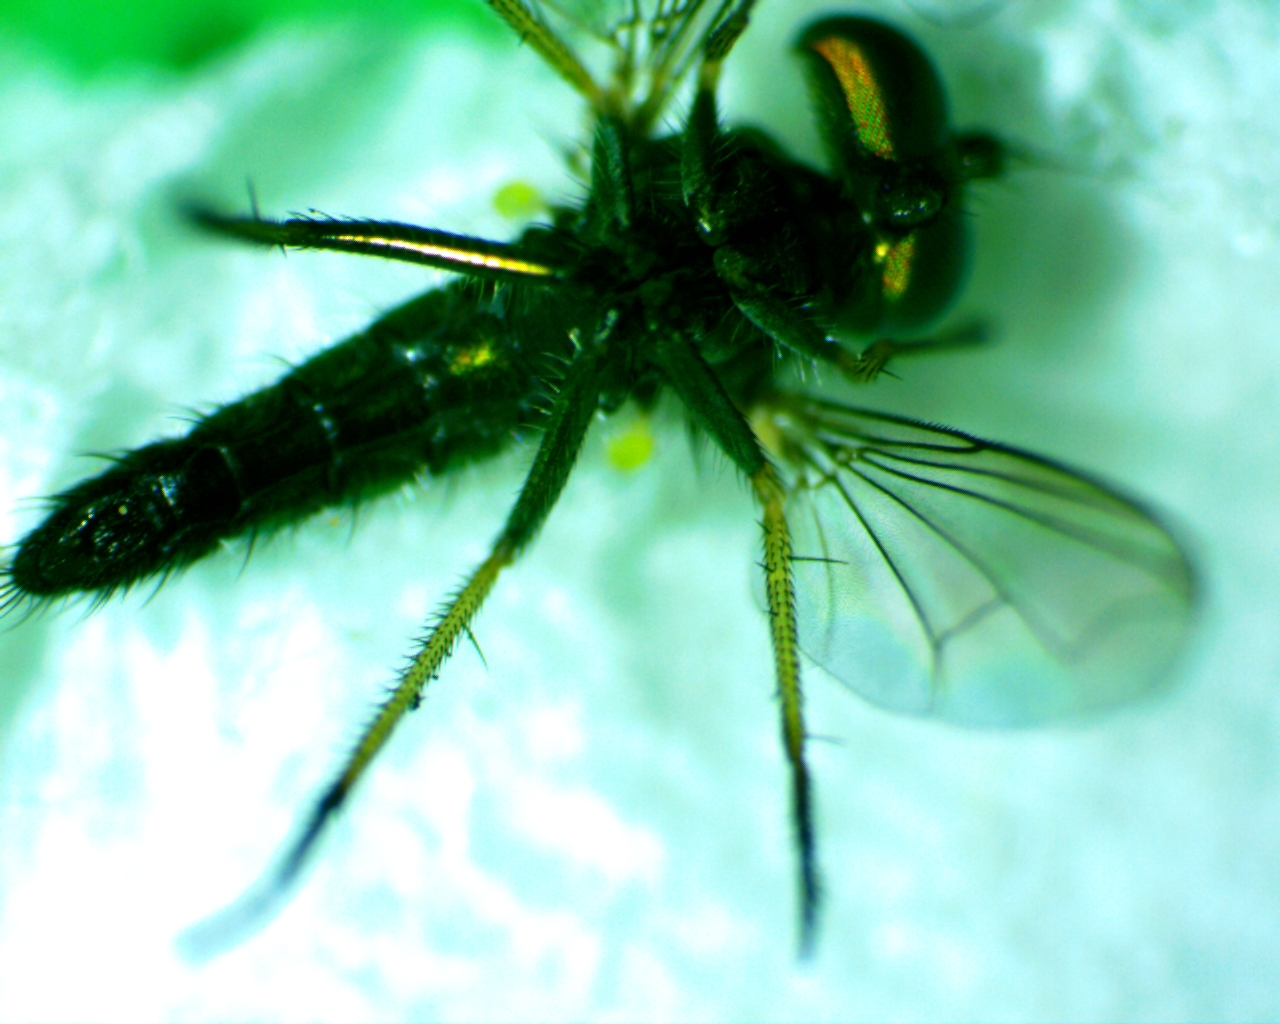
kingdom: Animalia
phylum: Arthropoda
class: Insecta
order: Diptera
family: Dolichopodidae
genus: Condylostylus
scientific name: Condylostylus caudatus
